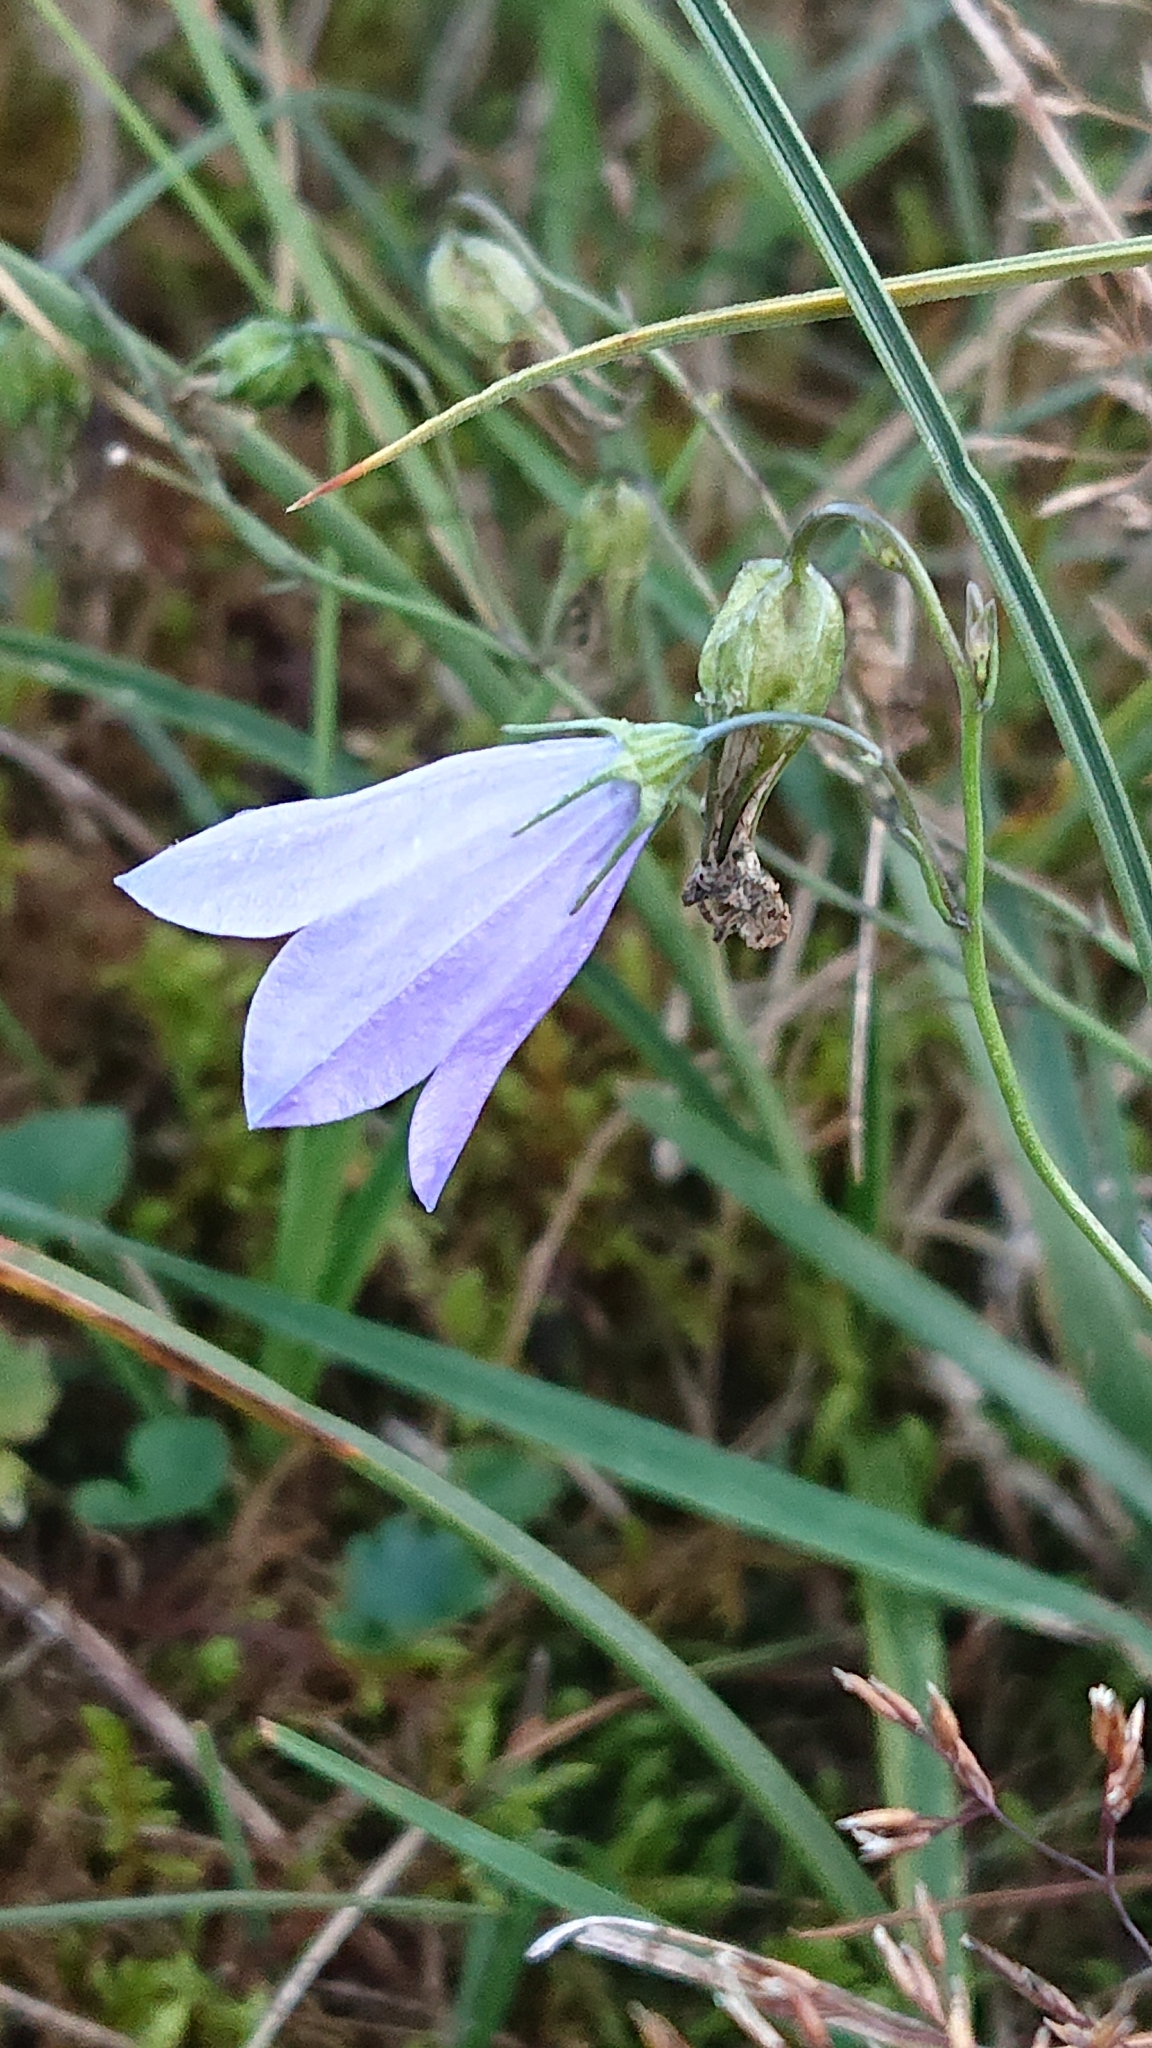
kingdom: Plantae
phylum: Tracheophyta
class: Magnoliopsida
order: Asterales
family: Campanulaceae
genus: Campanula
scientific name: Campanula rotundifolia
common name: Harebell
